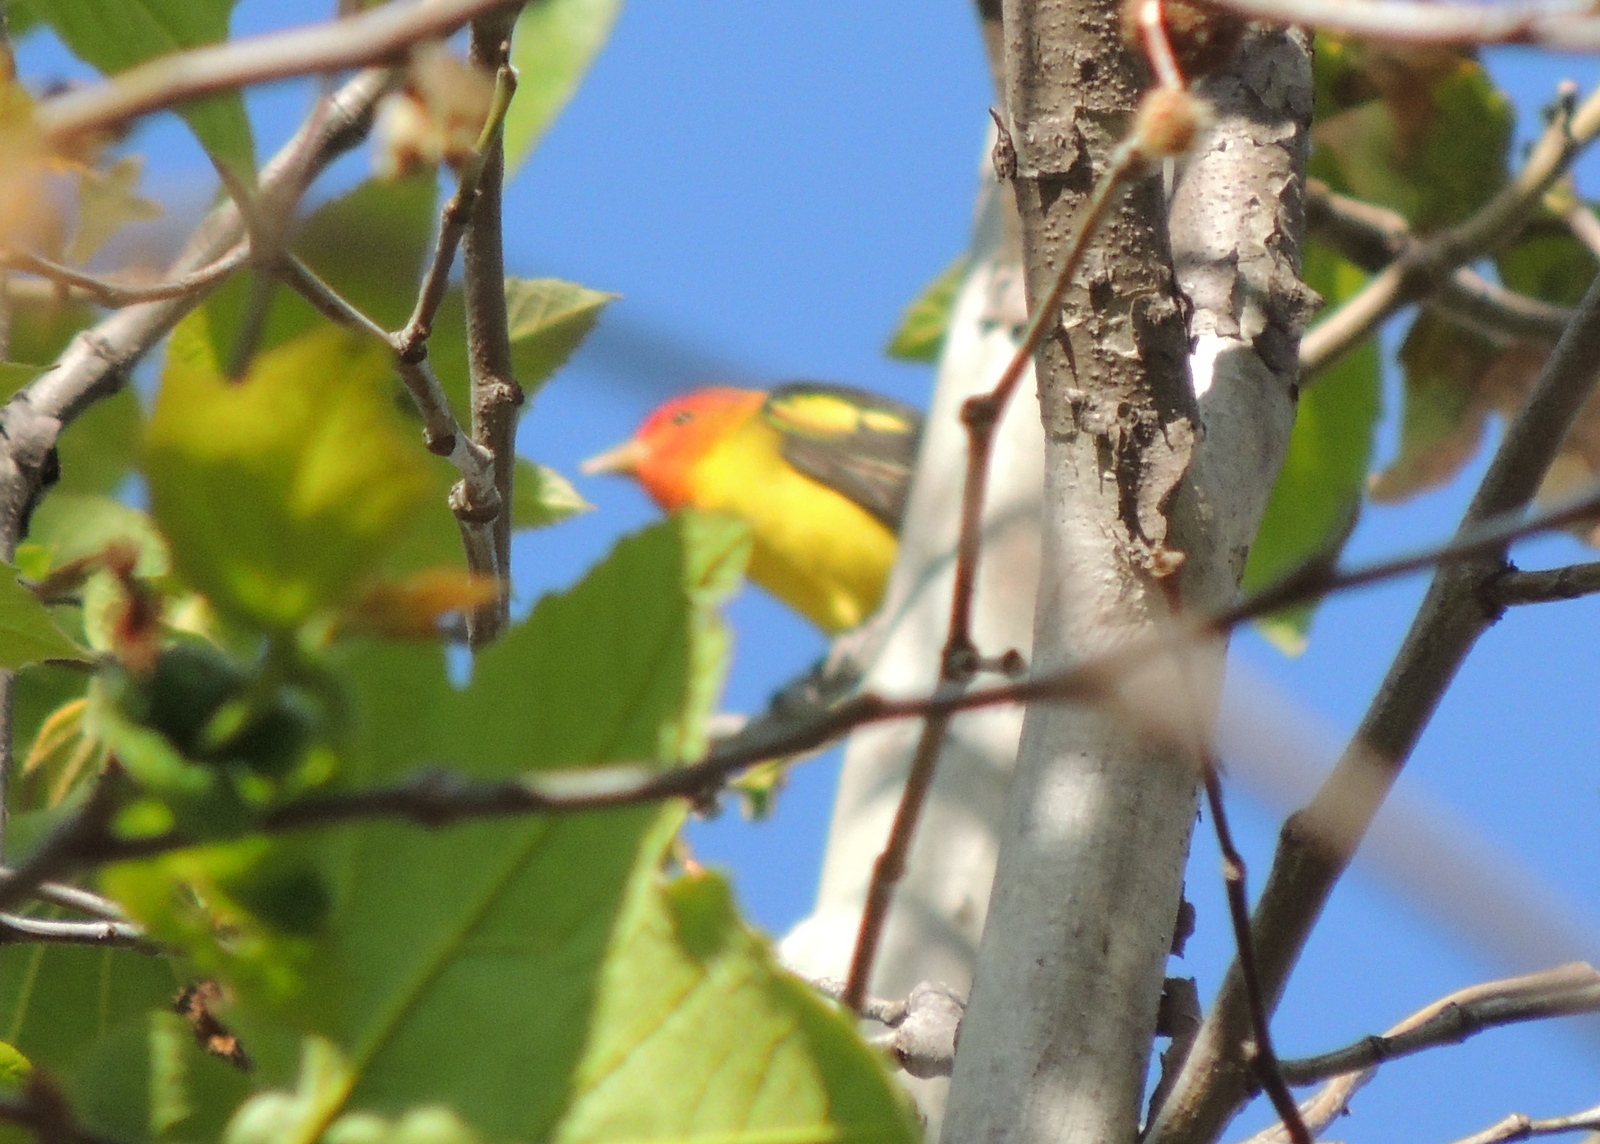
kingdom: Animalia
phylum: Chordata
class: Aves
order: Passeriformes
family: Cardinalidae
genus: Piranga
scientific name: Piranga ludoviciana
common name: Western tanager
